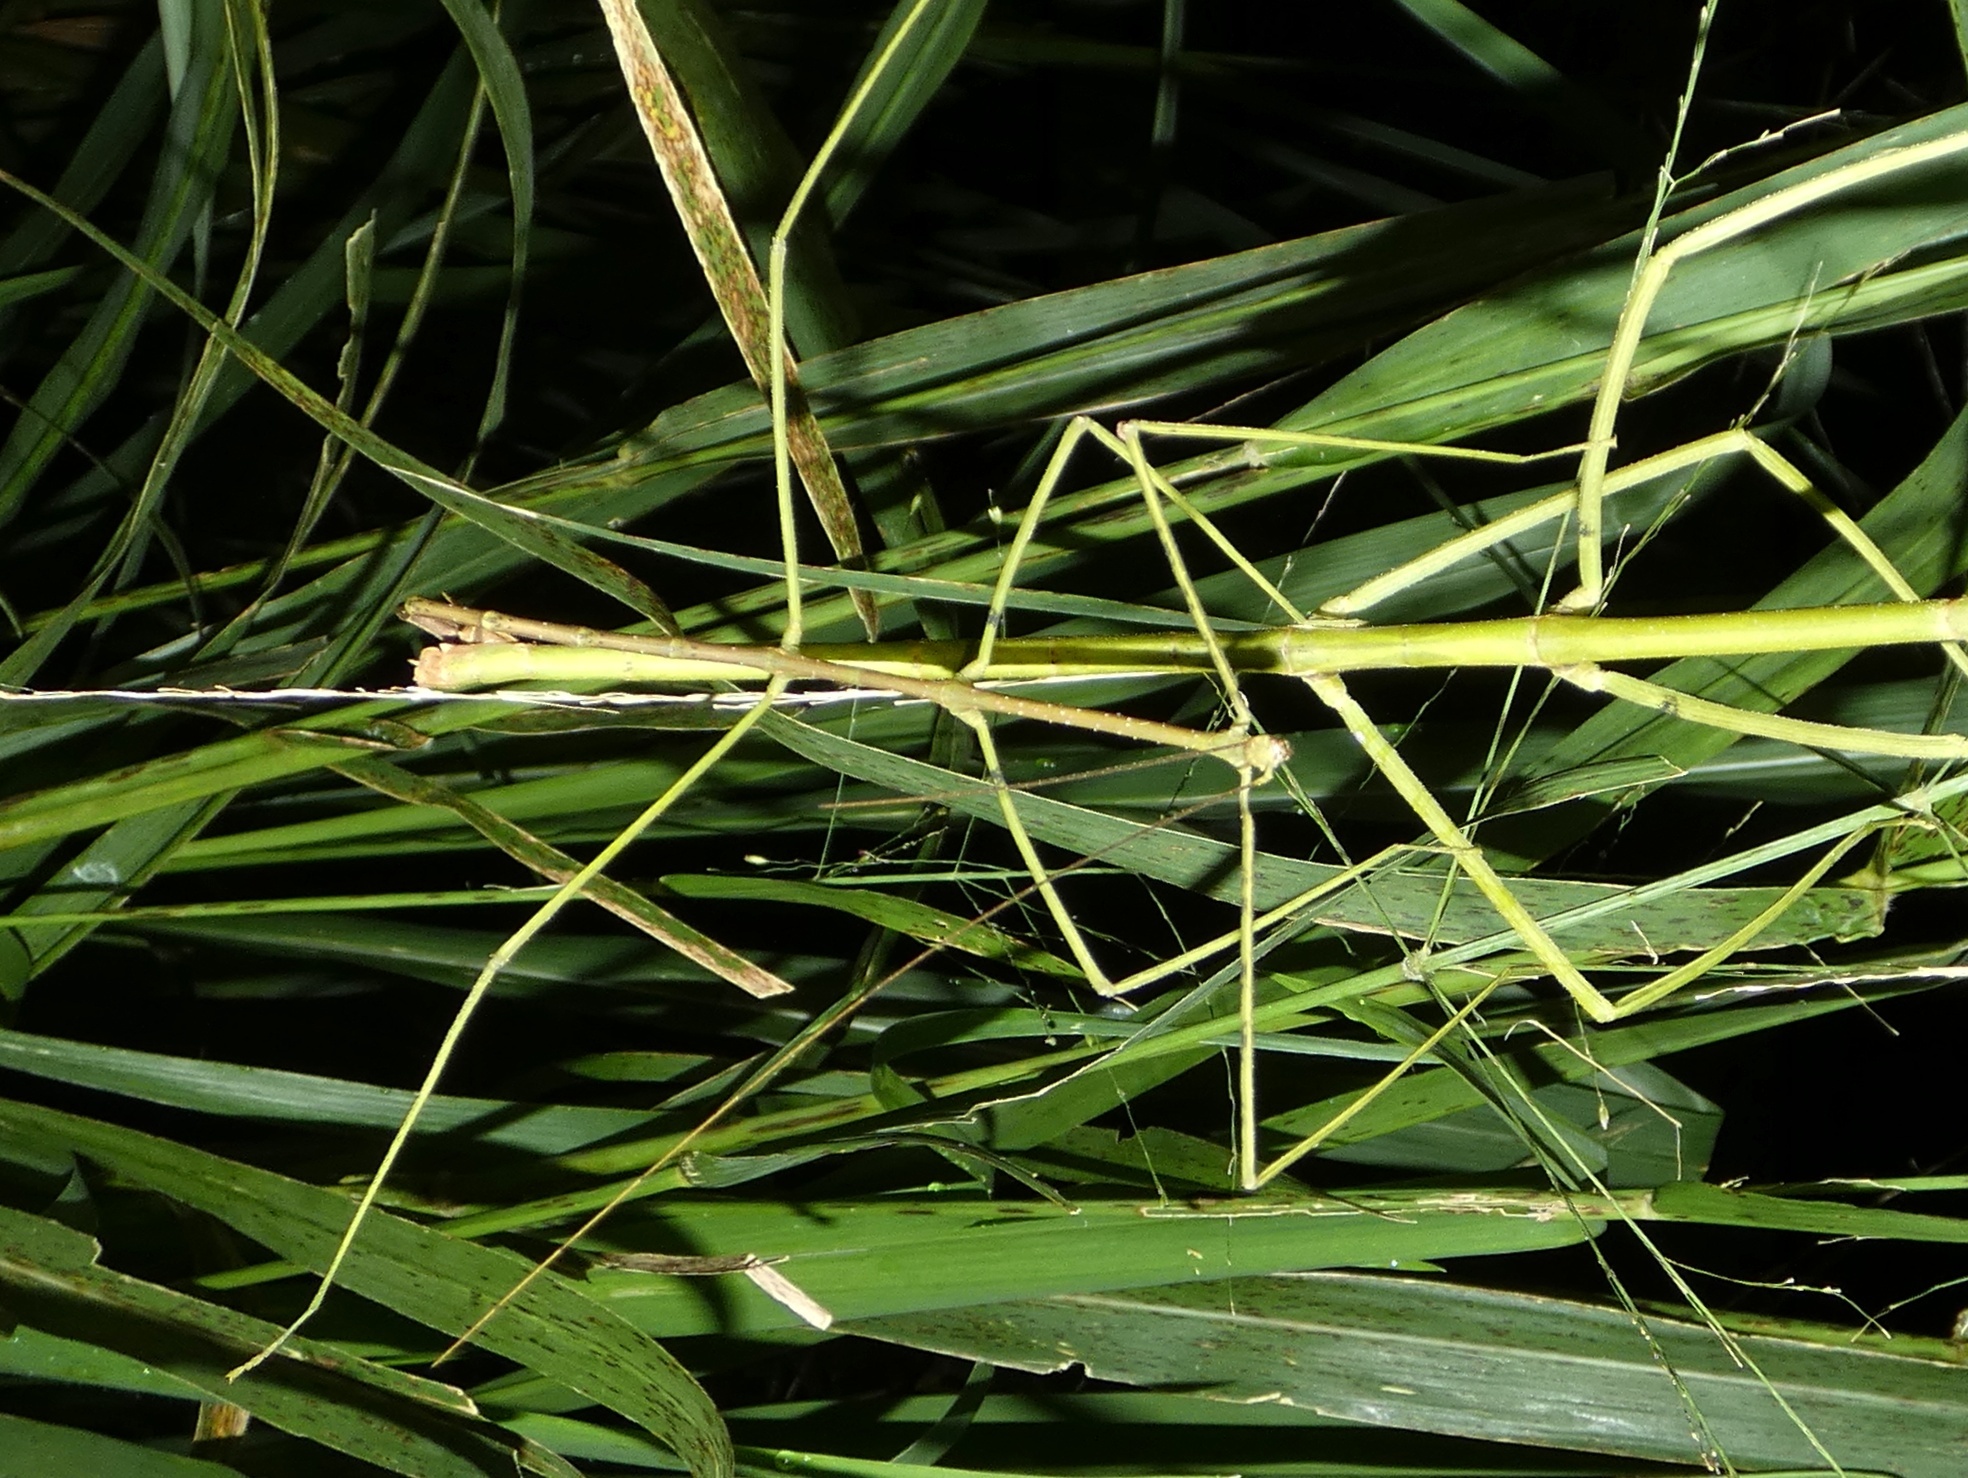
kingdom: Animalia
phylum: Arthropoda
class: Insecta
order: Phasmida
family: Diapheromeridae
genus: Phanoclocrania
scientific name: Phanoclocrania dorsuaria
